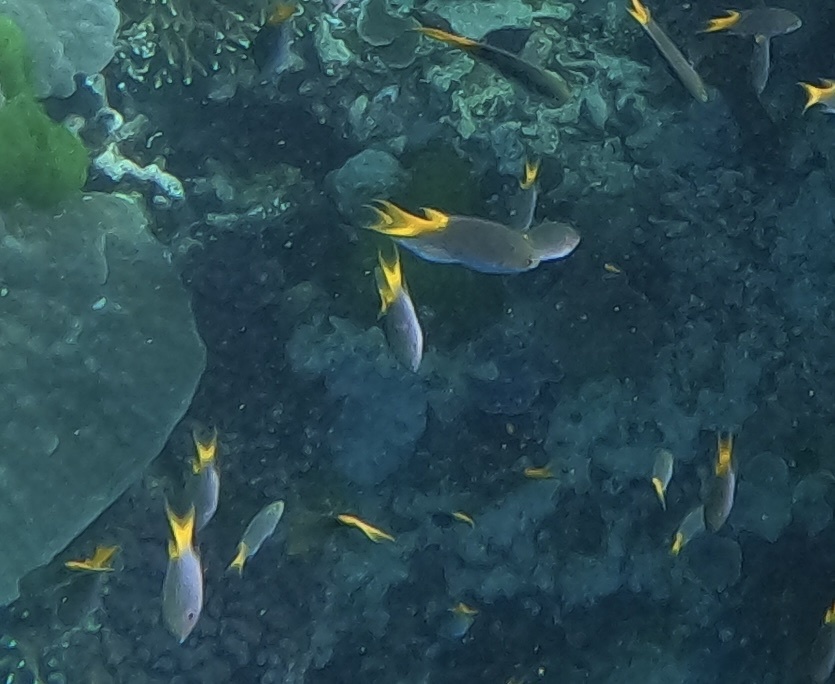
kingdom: Animalia
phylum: Chordata
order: Perciformes
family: Pomacentridae
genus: Neopomacentrus
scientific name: Neopomacentrus azysron
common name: Yellow-tail damsel
